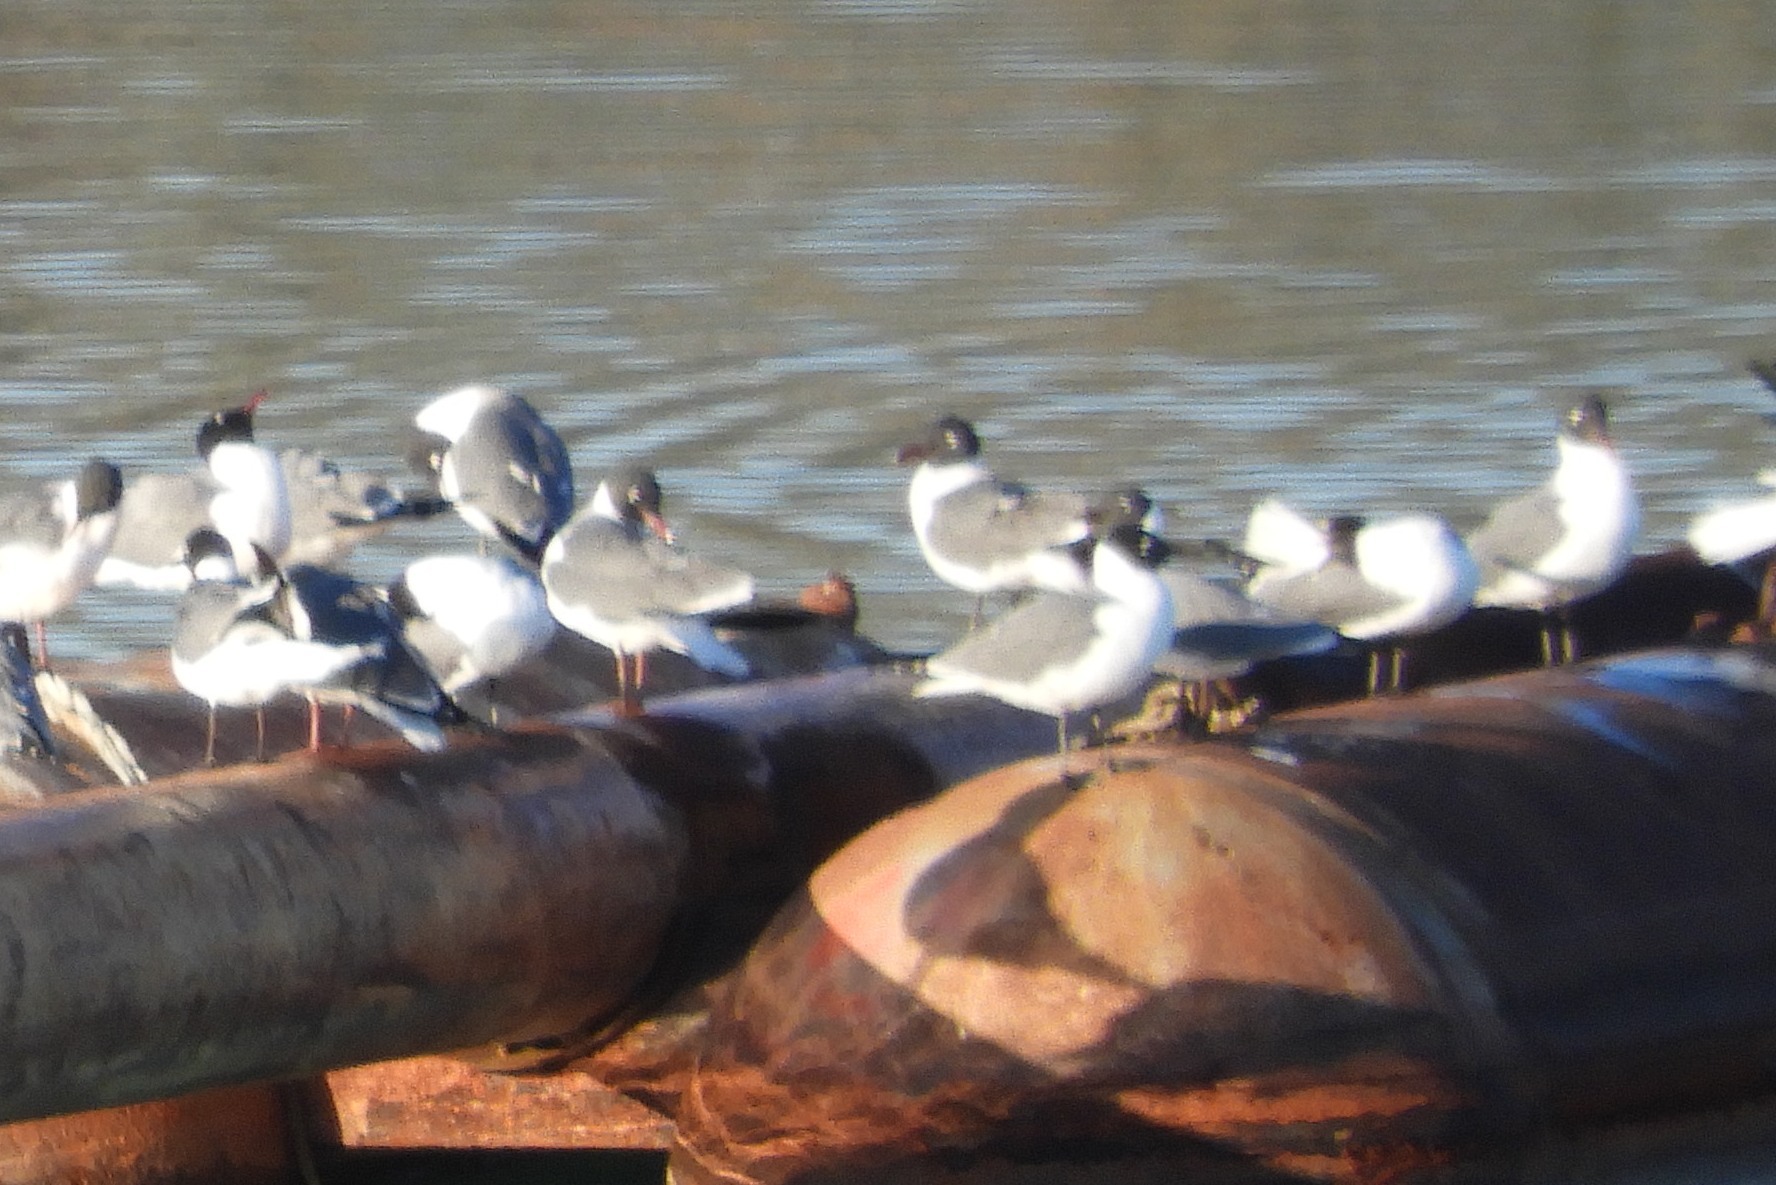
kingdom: Animalia
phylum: Chordata
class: Aves
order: Charadriiformes
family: Laridae
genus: Leucophaeus
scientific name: Leucophaeus atricilla
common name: Laughing gull
